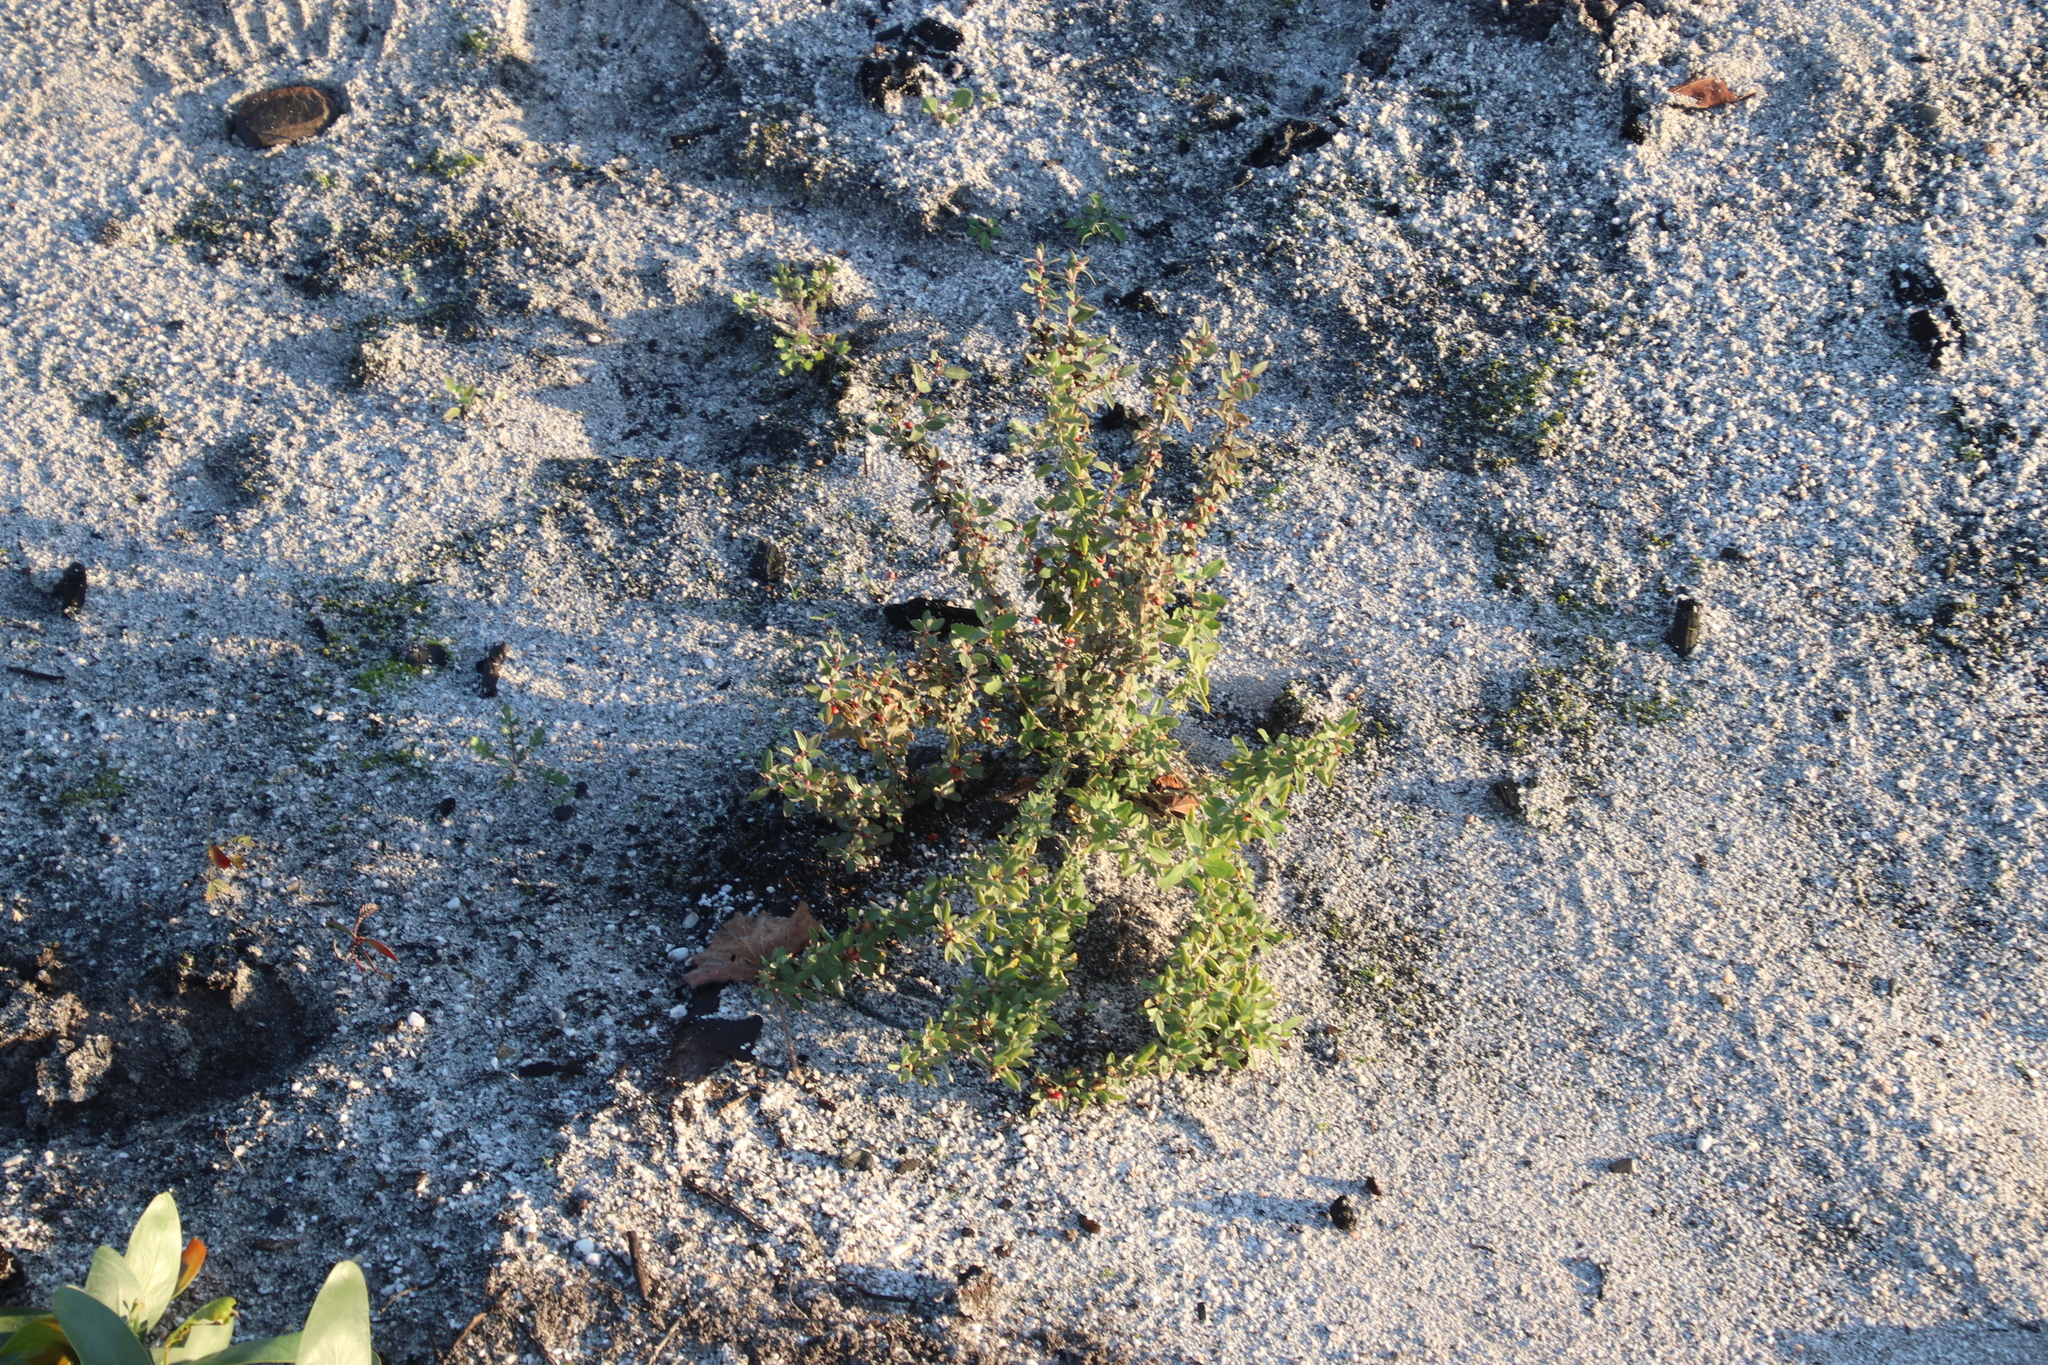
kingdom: Plantae
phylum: Tracheophyta
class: Magnoliopsida
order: Caryophyllales
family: Amaranthaceae
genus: Atriplex
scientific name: Atriplex semibaccata
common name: Australian saltbush
